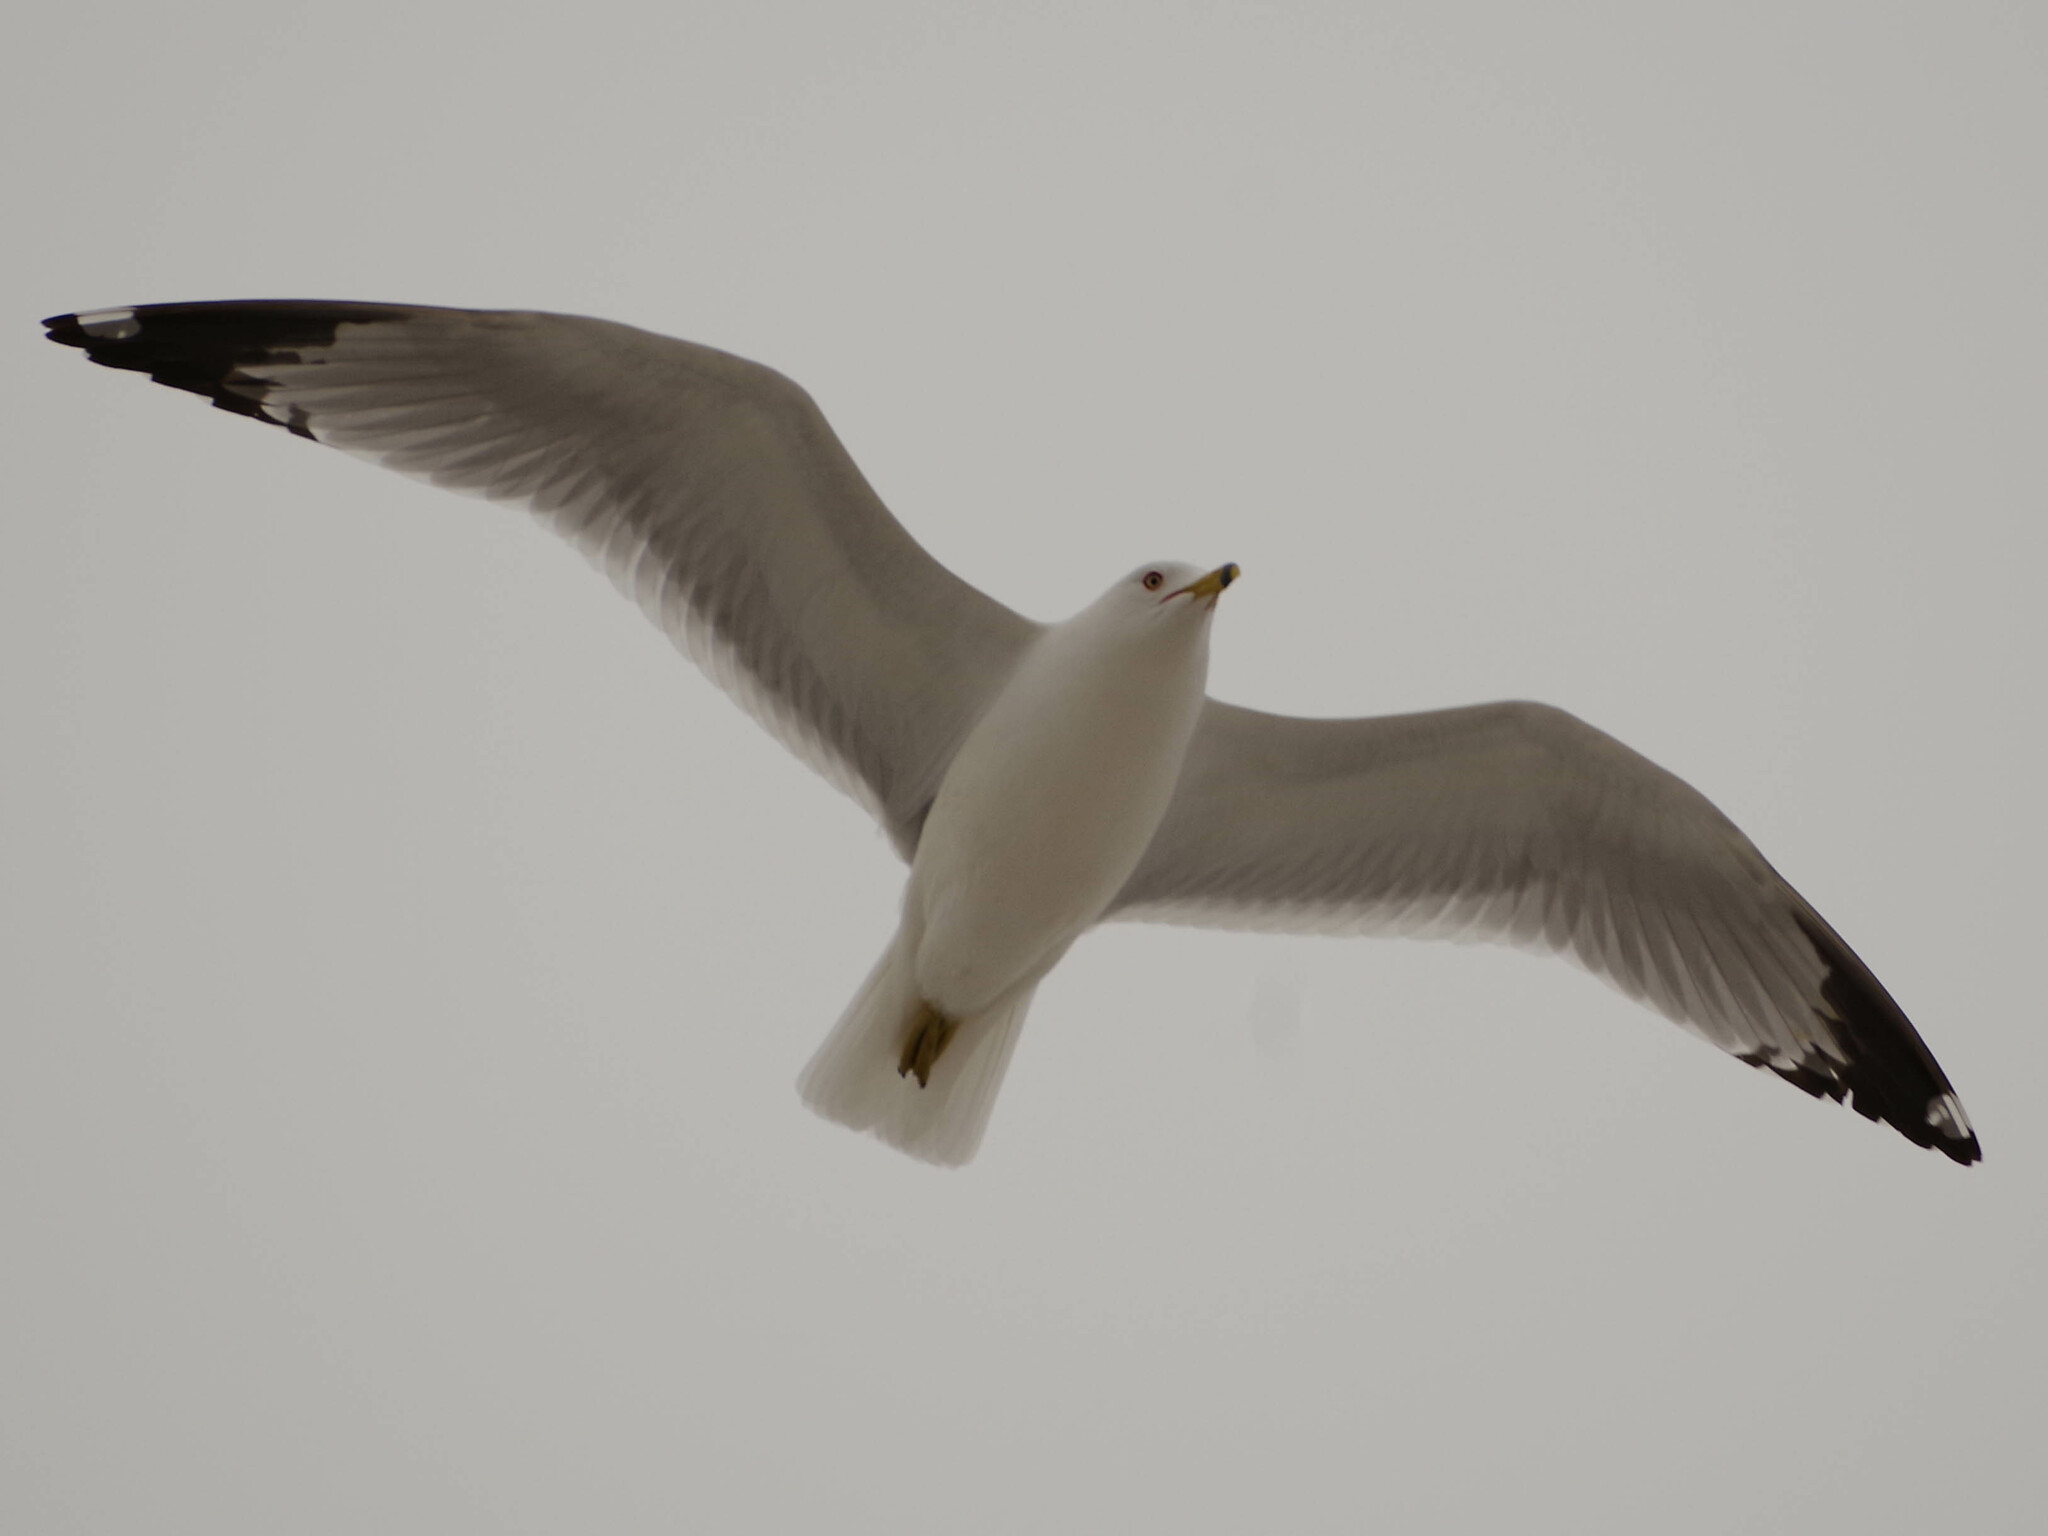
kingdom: Animalia
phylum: Chordata
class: Aves
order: Charadriiformes
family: Laridae
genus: Larus
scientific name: Larus delawarensis
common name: Ring-billed gull
